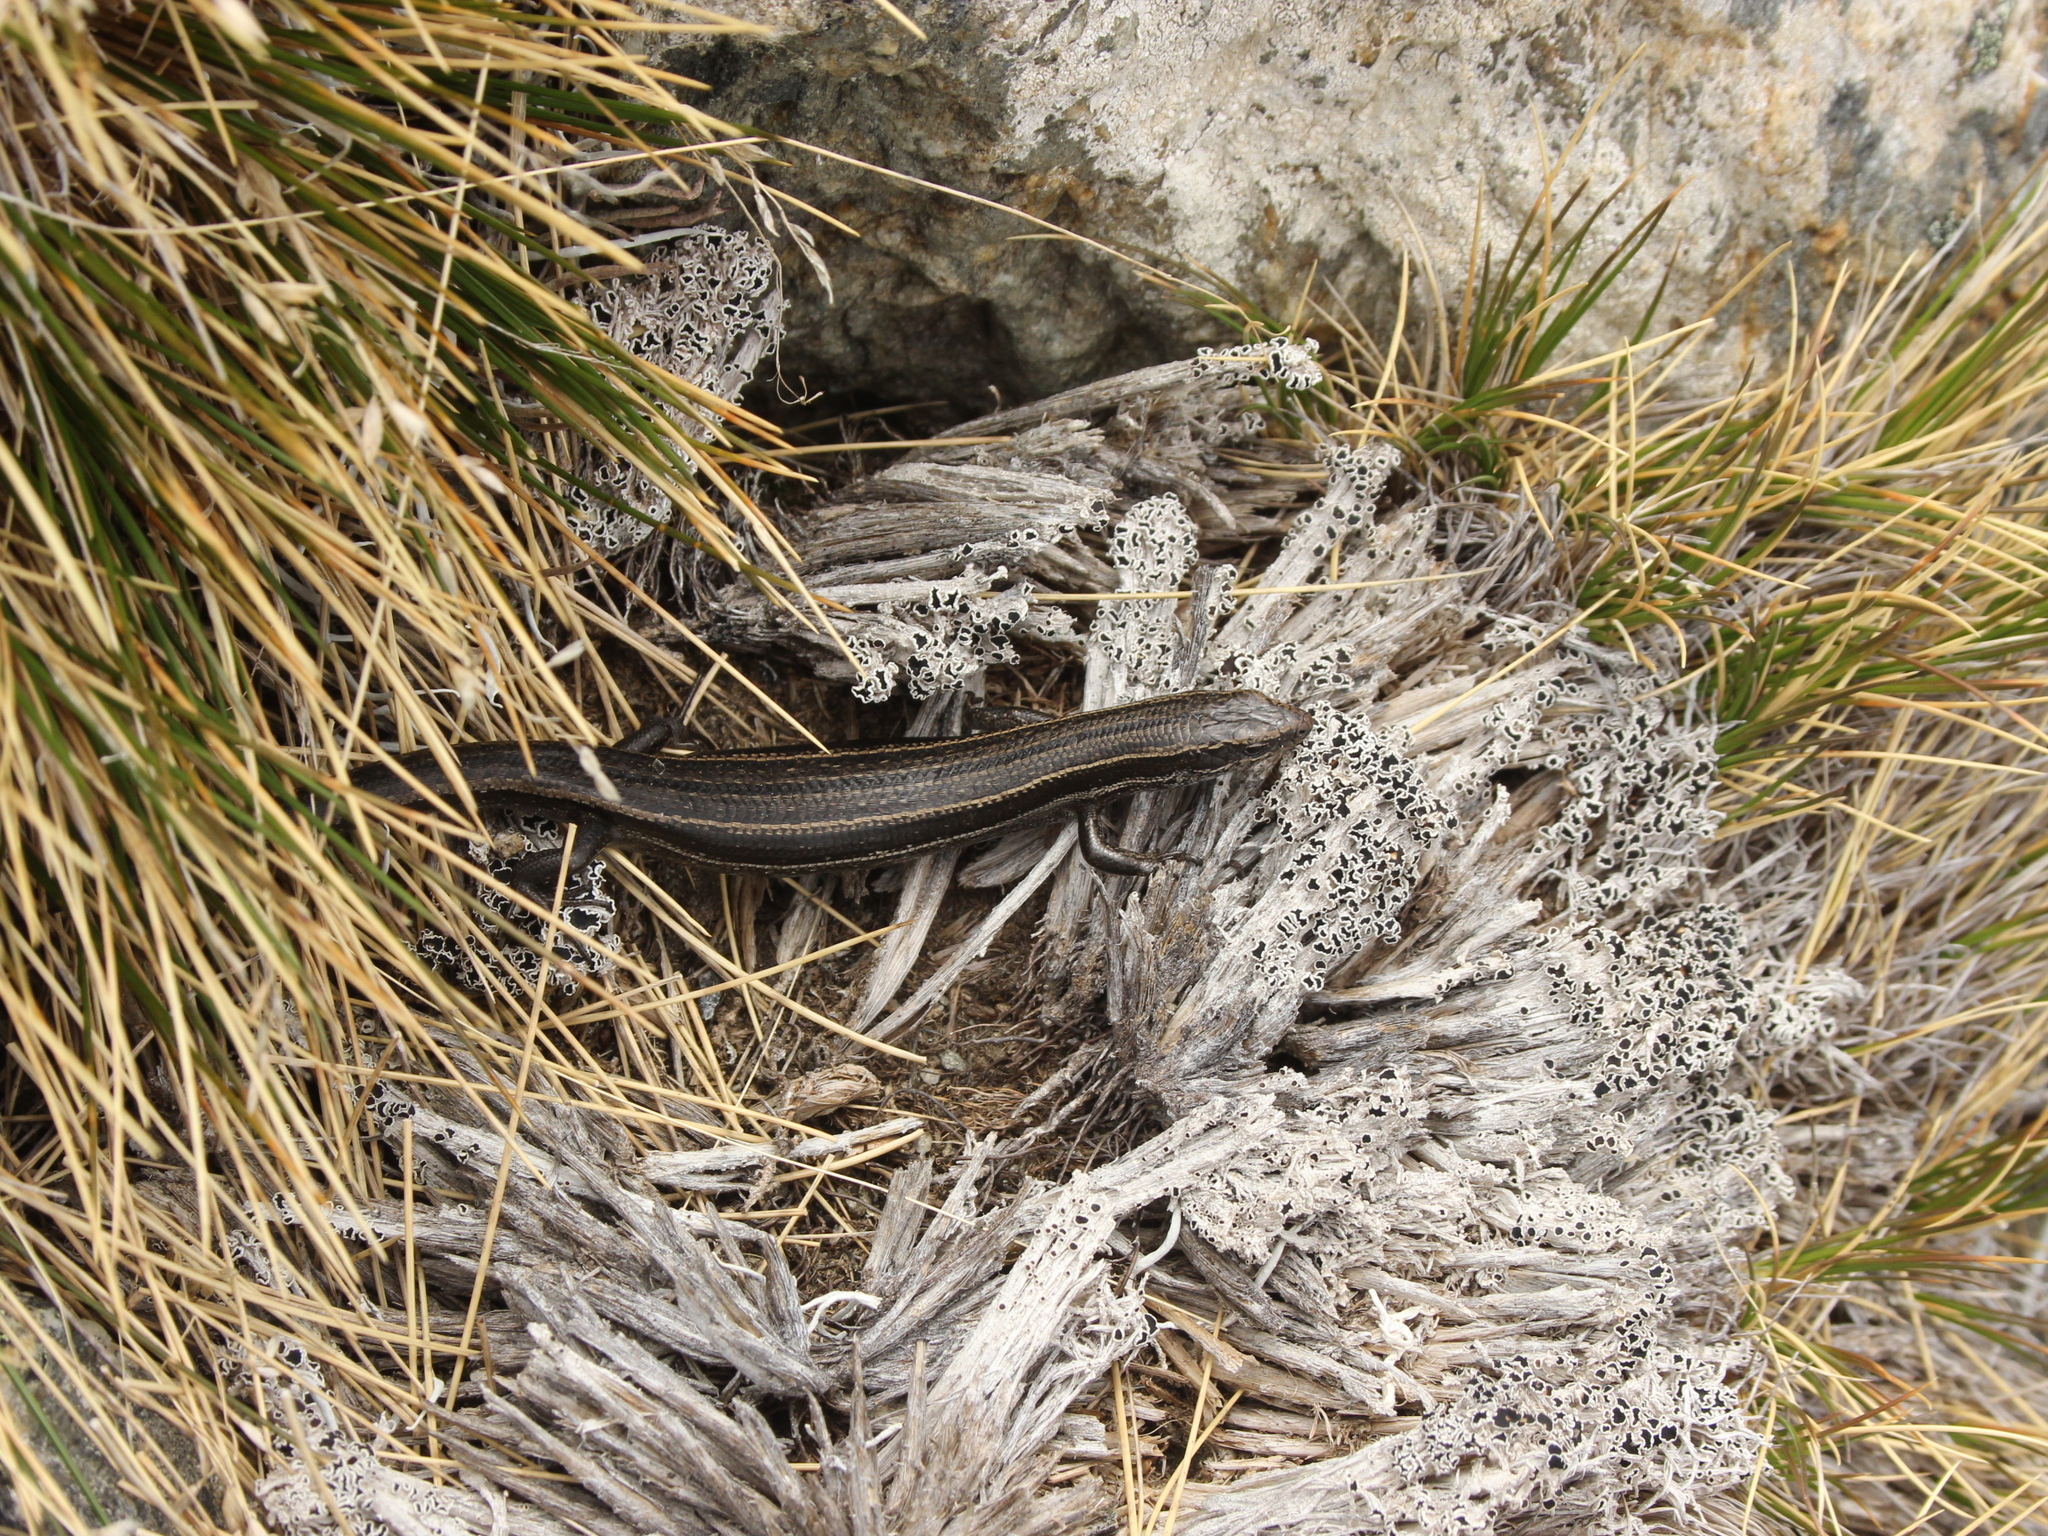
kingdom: Animalia
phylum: Chordata
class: Squamata
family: Scincidae
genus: Oligosoma
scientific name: Oligosoma toka
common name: Nevis skink
